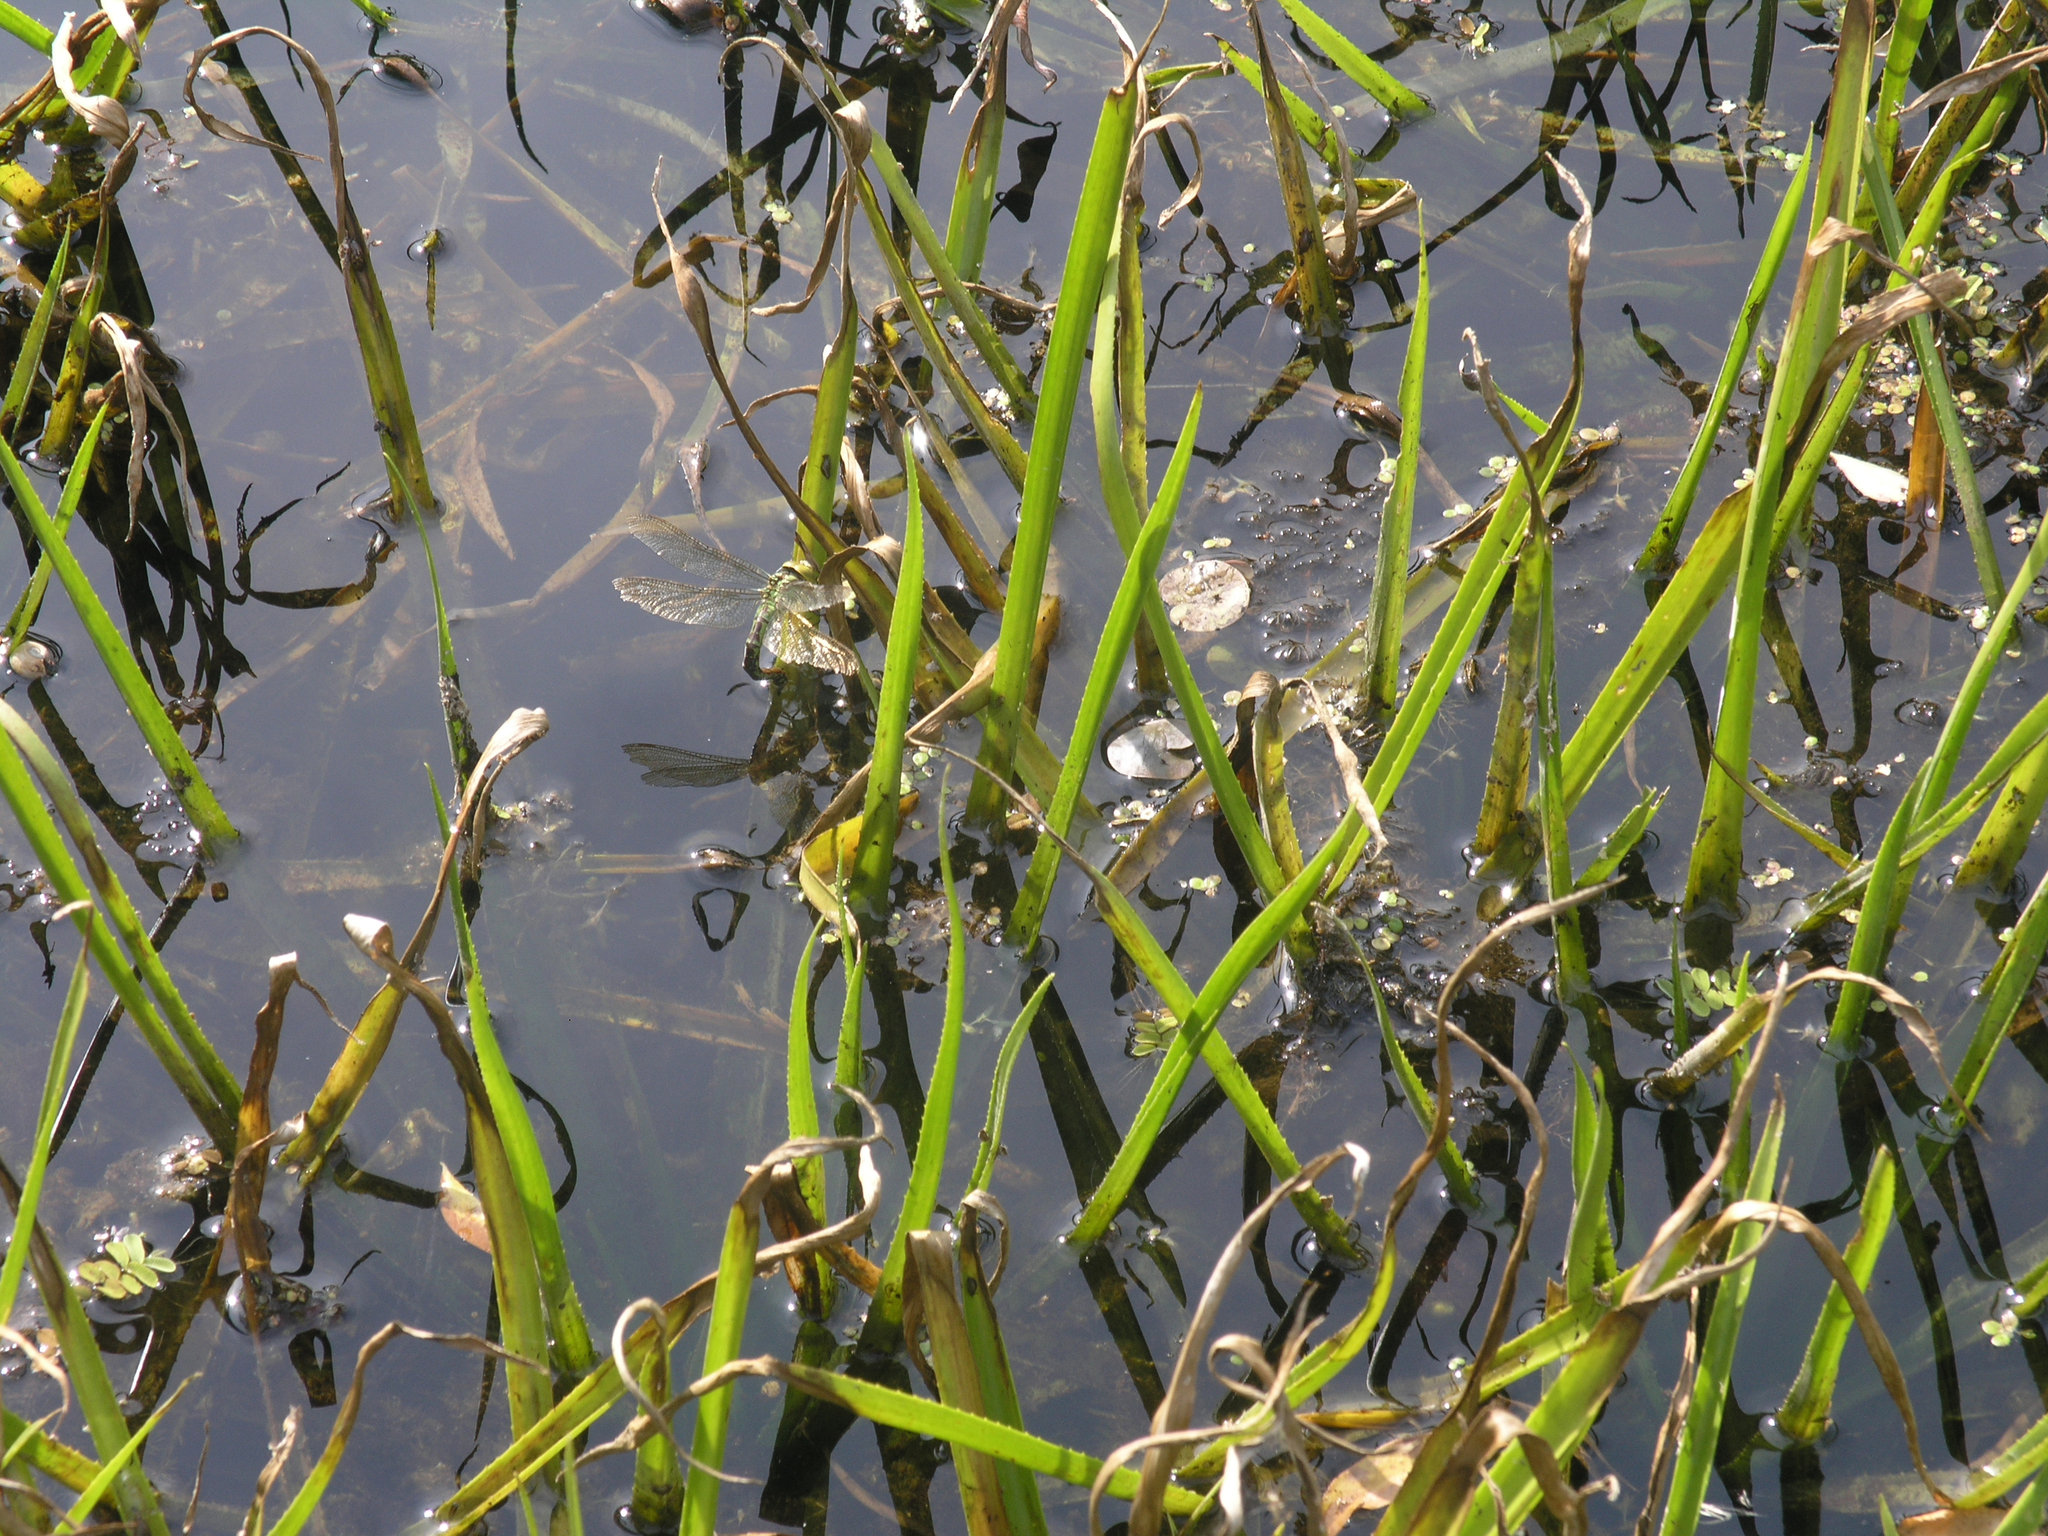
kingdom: Plantae
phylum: Tracheophyta
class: Liliopsida
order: Alismatales
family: Hydrocharitaceae
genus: Stratiotes
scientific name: Stratiotes aloides
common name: Water-soldier
